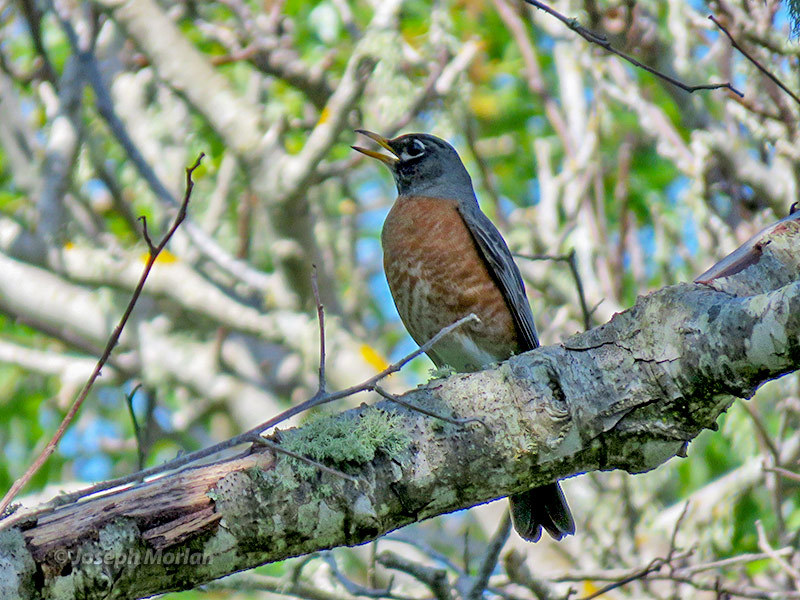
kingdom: Animalia
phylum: Chordata
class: Aves
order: Passeriformes
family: Turdidae
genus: Turdus
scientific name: Turdus migratorius
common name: American robin
